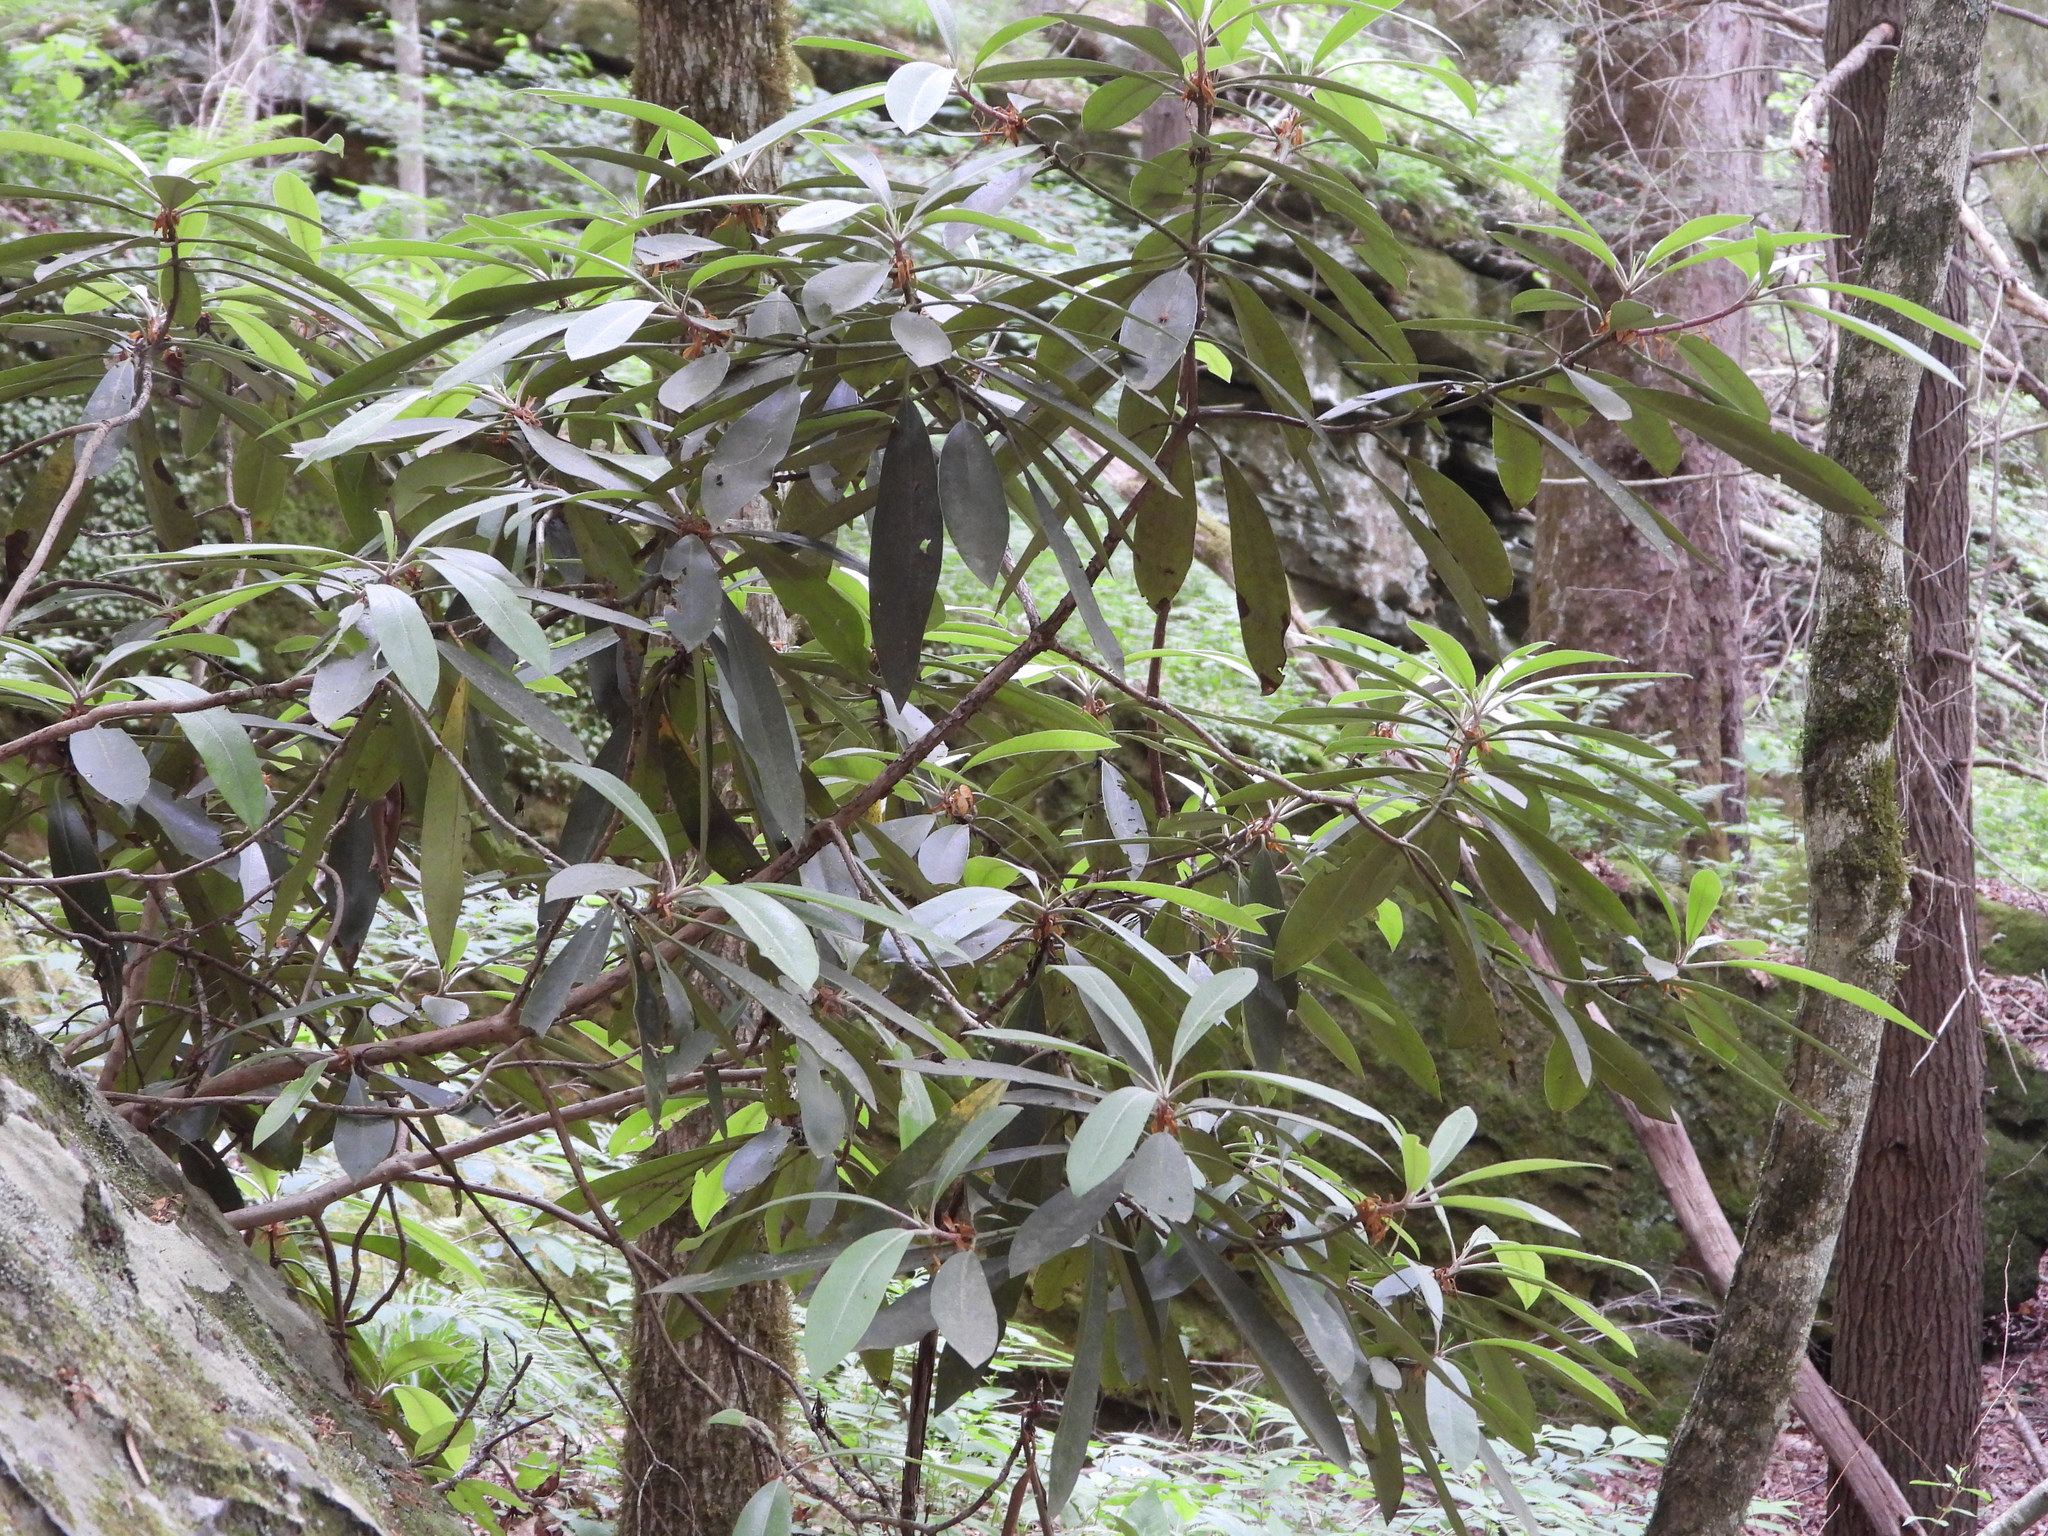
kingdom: Plantae
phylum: Tracheophyta
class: Magnoliopsida
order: Ericales
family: Ericaceae
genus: Rhododendron
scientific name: Rhododendron maximum
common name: Great rhododendron
